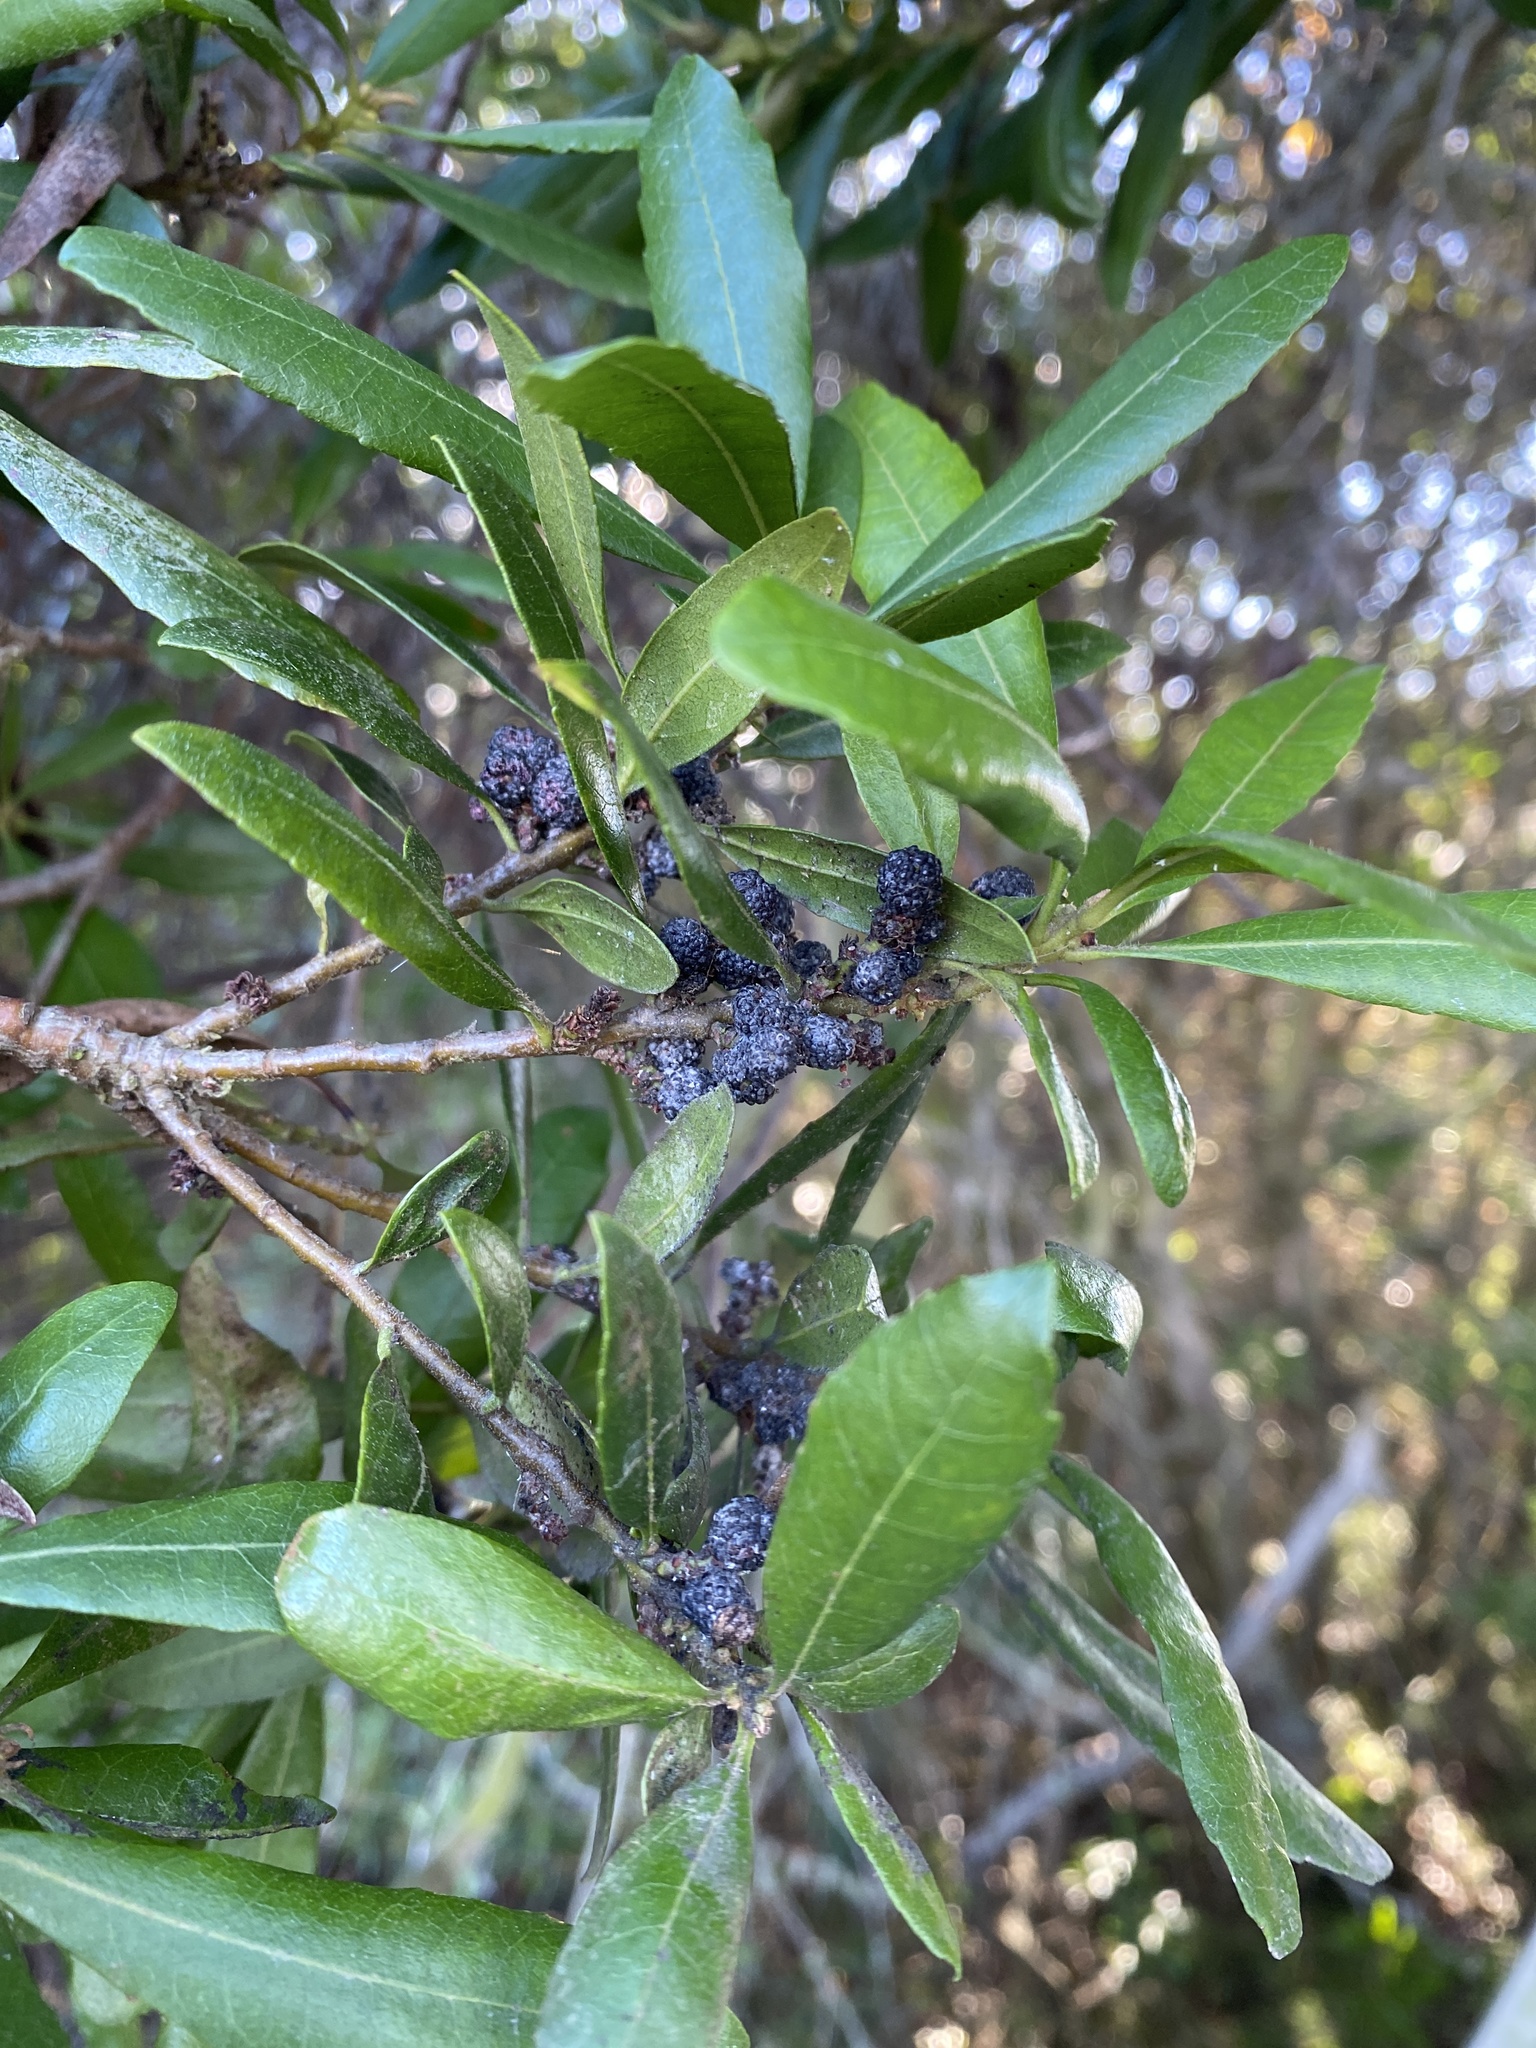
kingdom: Plantae
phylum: Tracheophyta
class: Magnoliopsida
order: Fagales
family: Myricaceae
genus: Morella
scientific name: Morella californica
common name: California wax-myrtle
